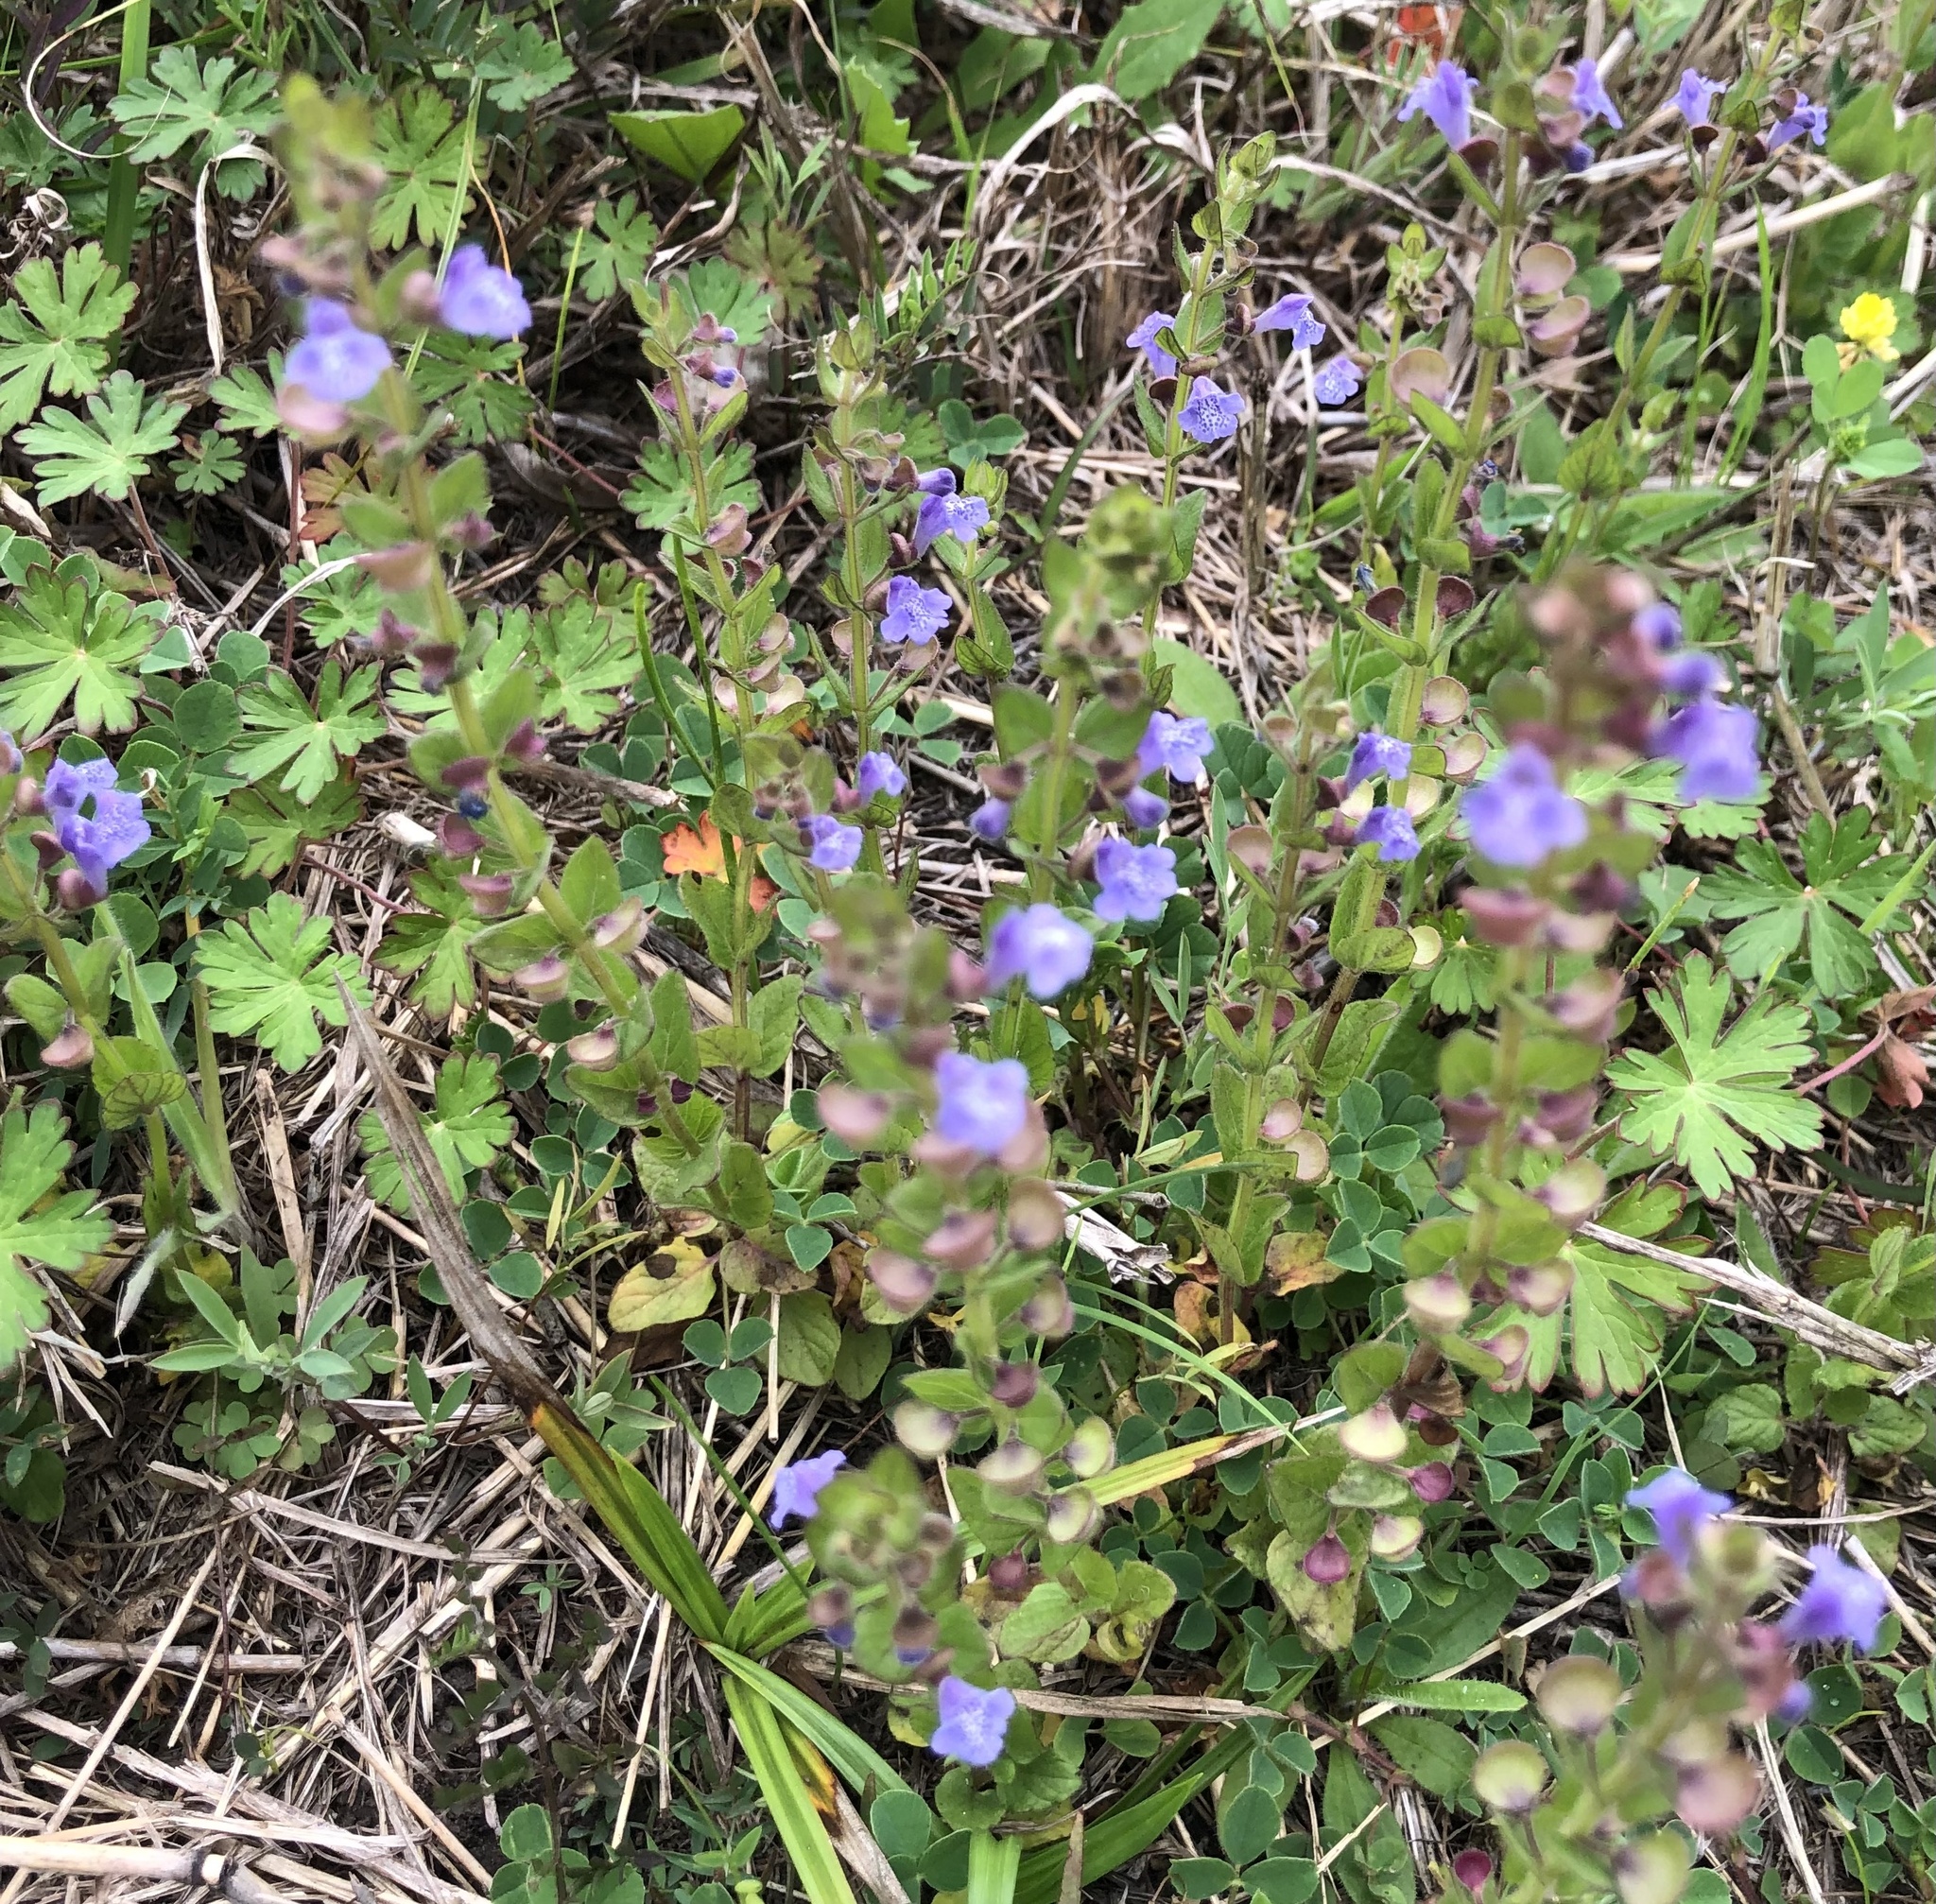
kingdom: Plantae
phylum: Tracheophyta
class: Magnoliopsida
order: Lamiales
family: Lamiaceae
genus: Scutellaria
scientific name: Scutellaria parvula
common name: Little scullcap
